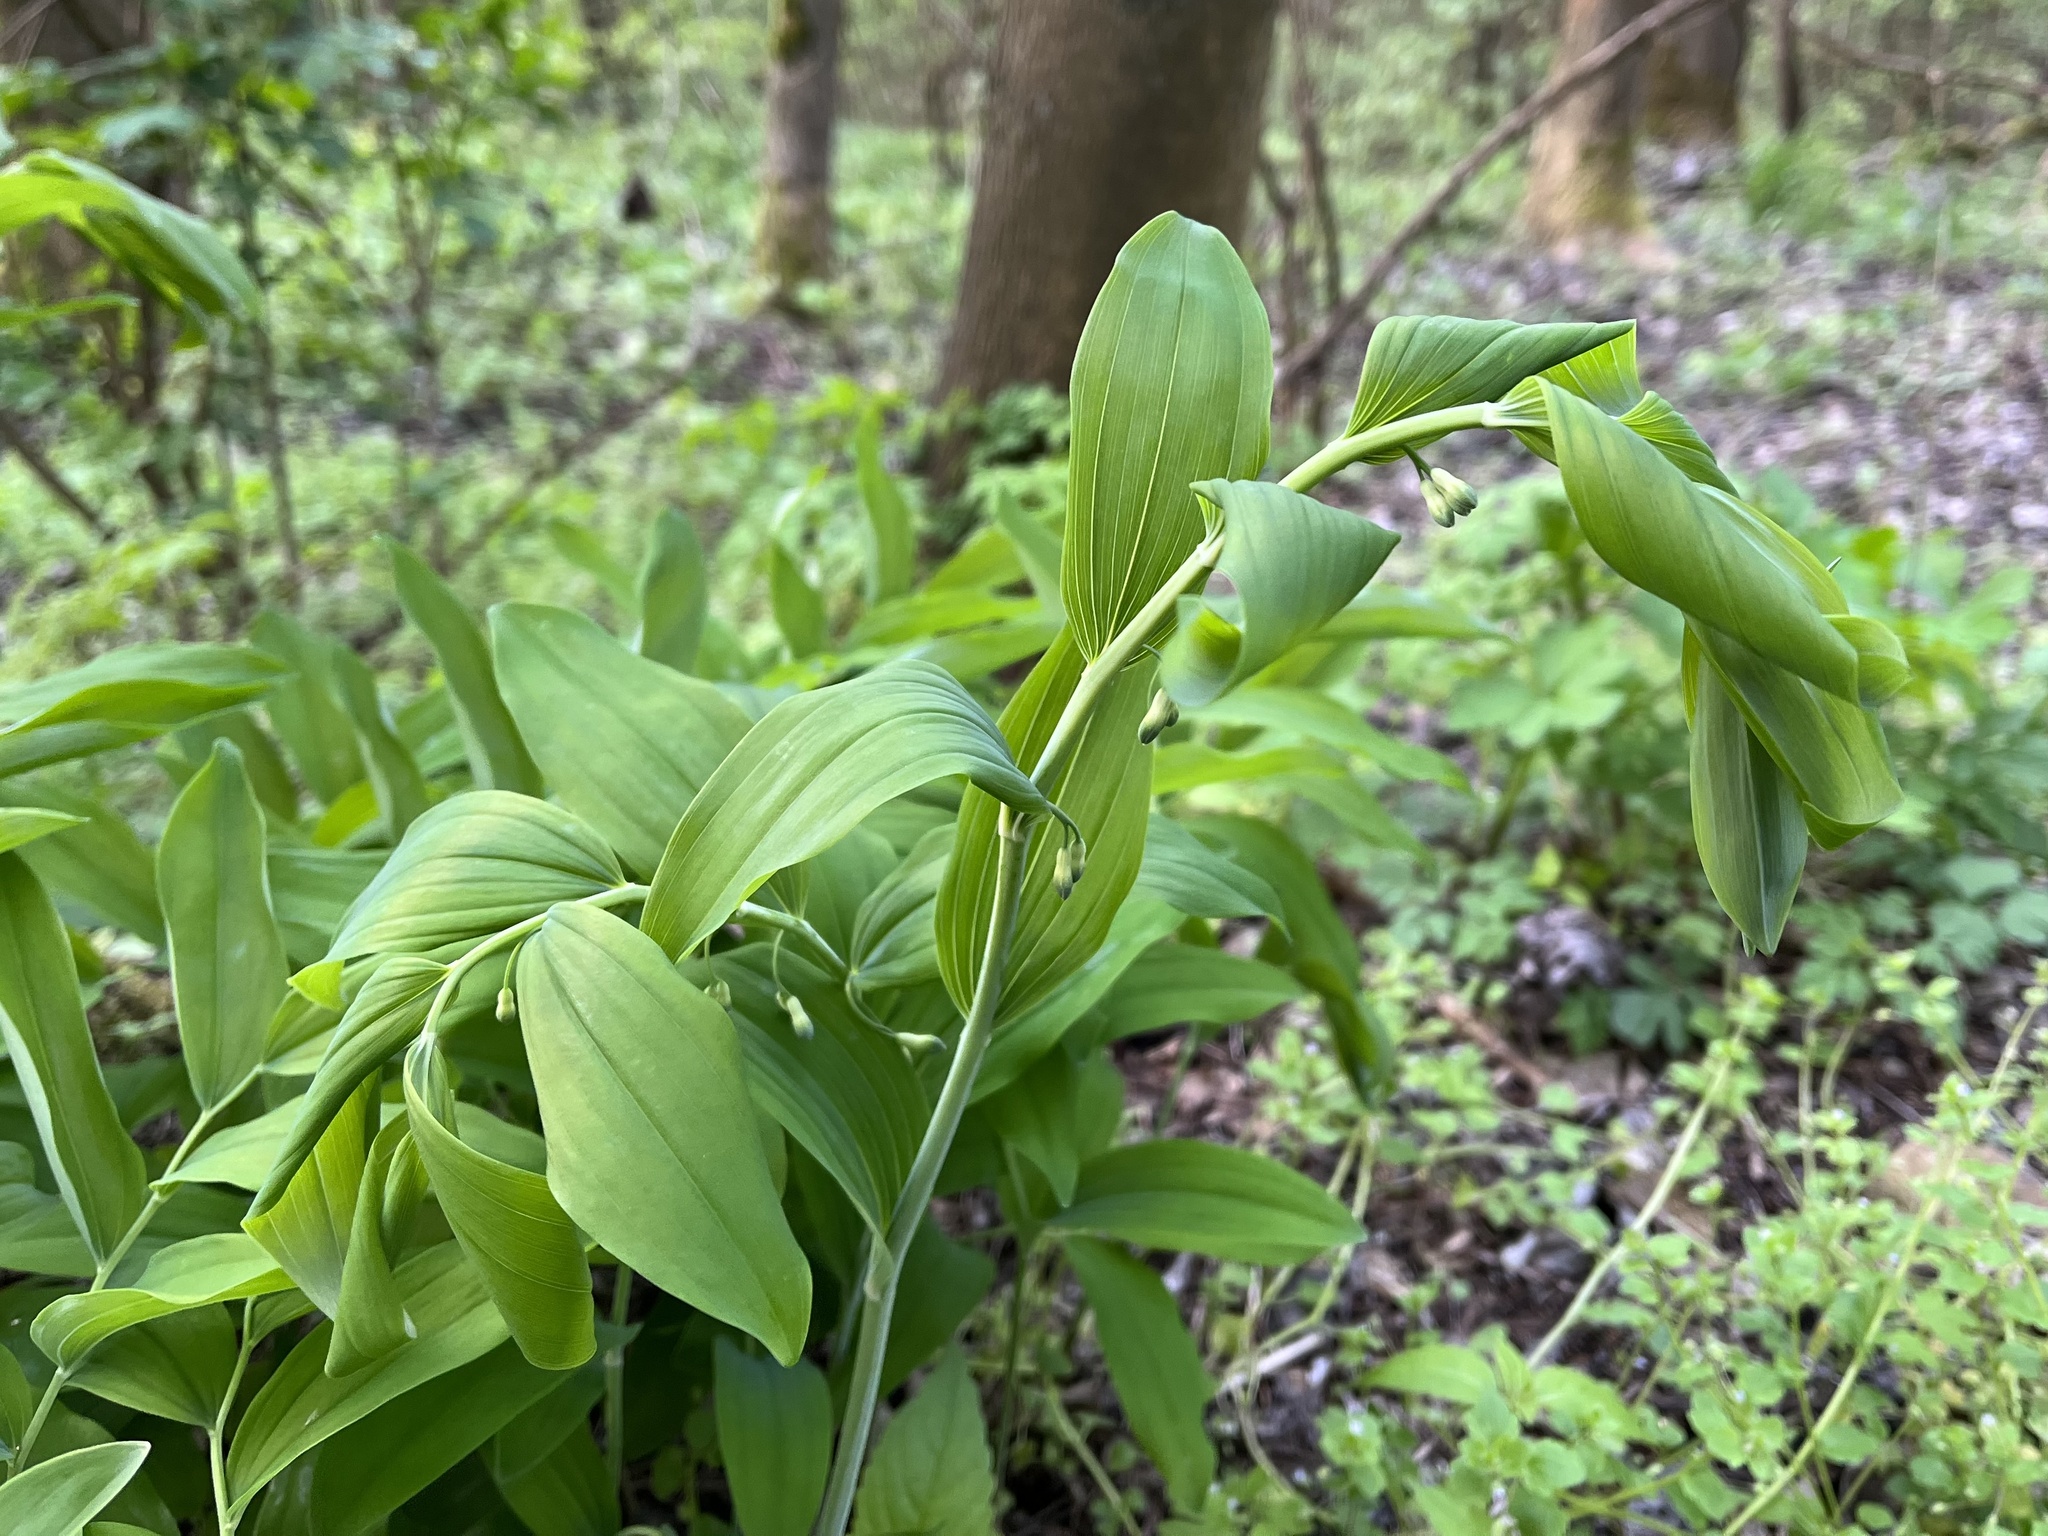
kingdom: Plantae
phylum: Tracheophyta
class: Liliopsida
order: Asparagales
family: Asparagaceae
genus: Polygonatum
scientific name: Polygonatum multiflorum
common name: Solomon's-seal
